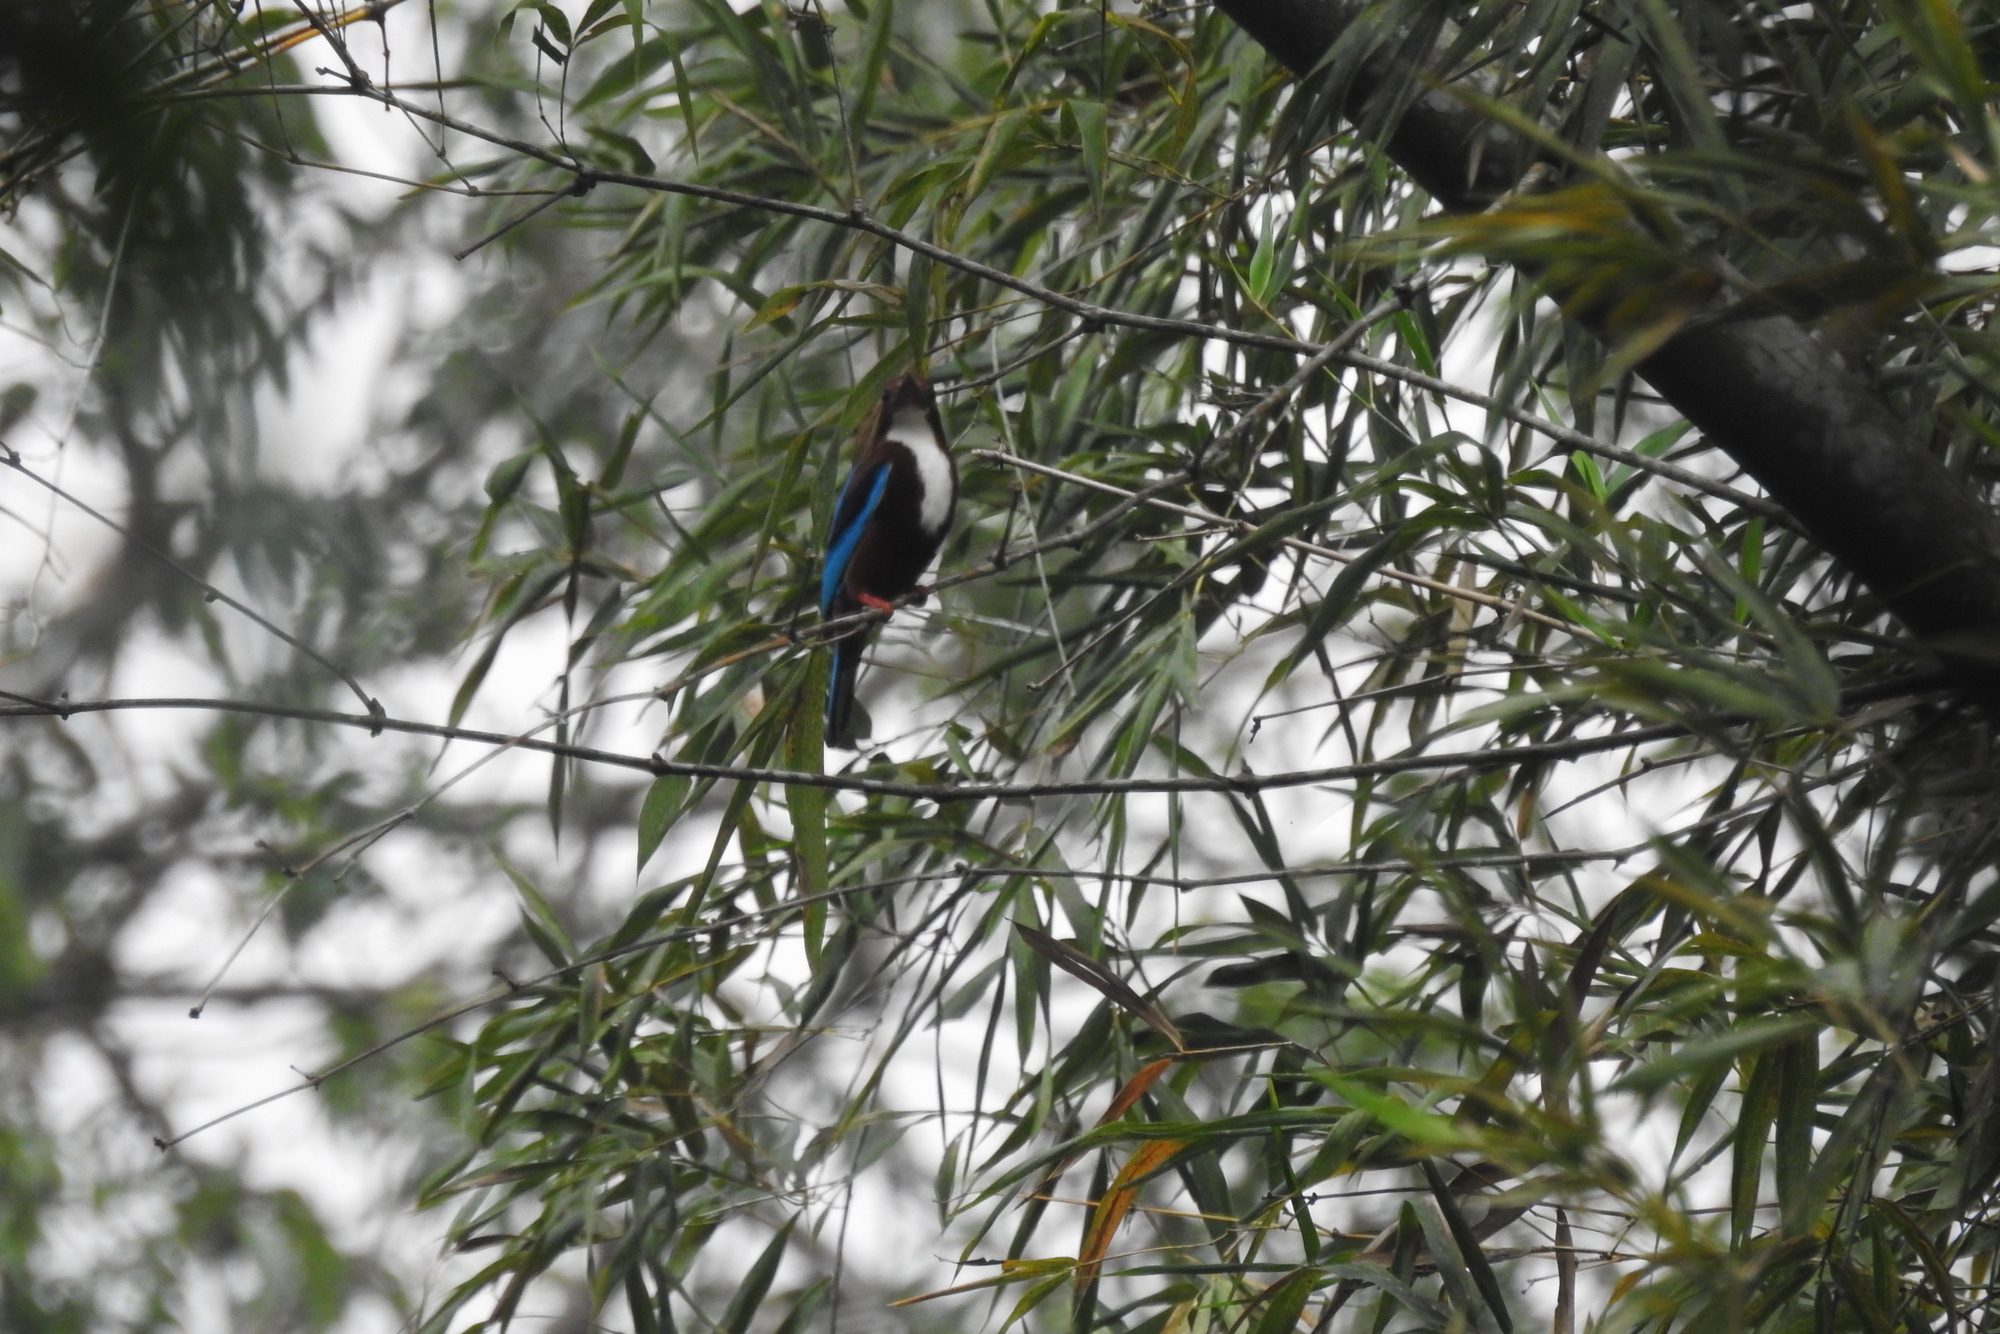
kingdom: Animalia
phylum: Chordata
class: Aves
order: Coraciiformes
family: Alcedinidae
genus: Halcyon
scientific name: Halcyon smyrnensis
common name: White-throated kingfisher
